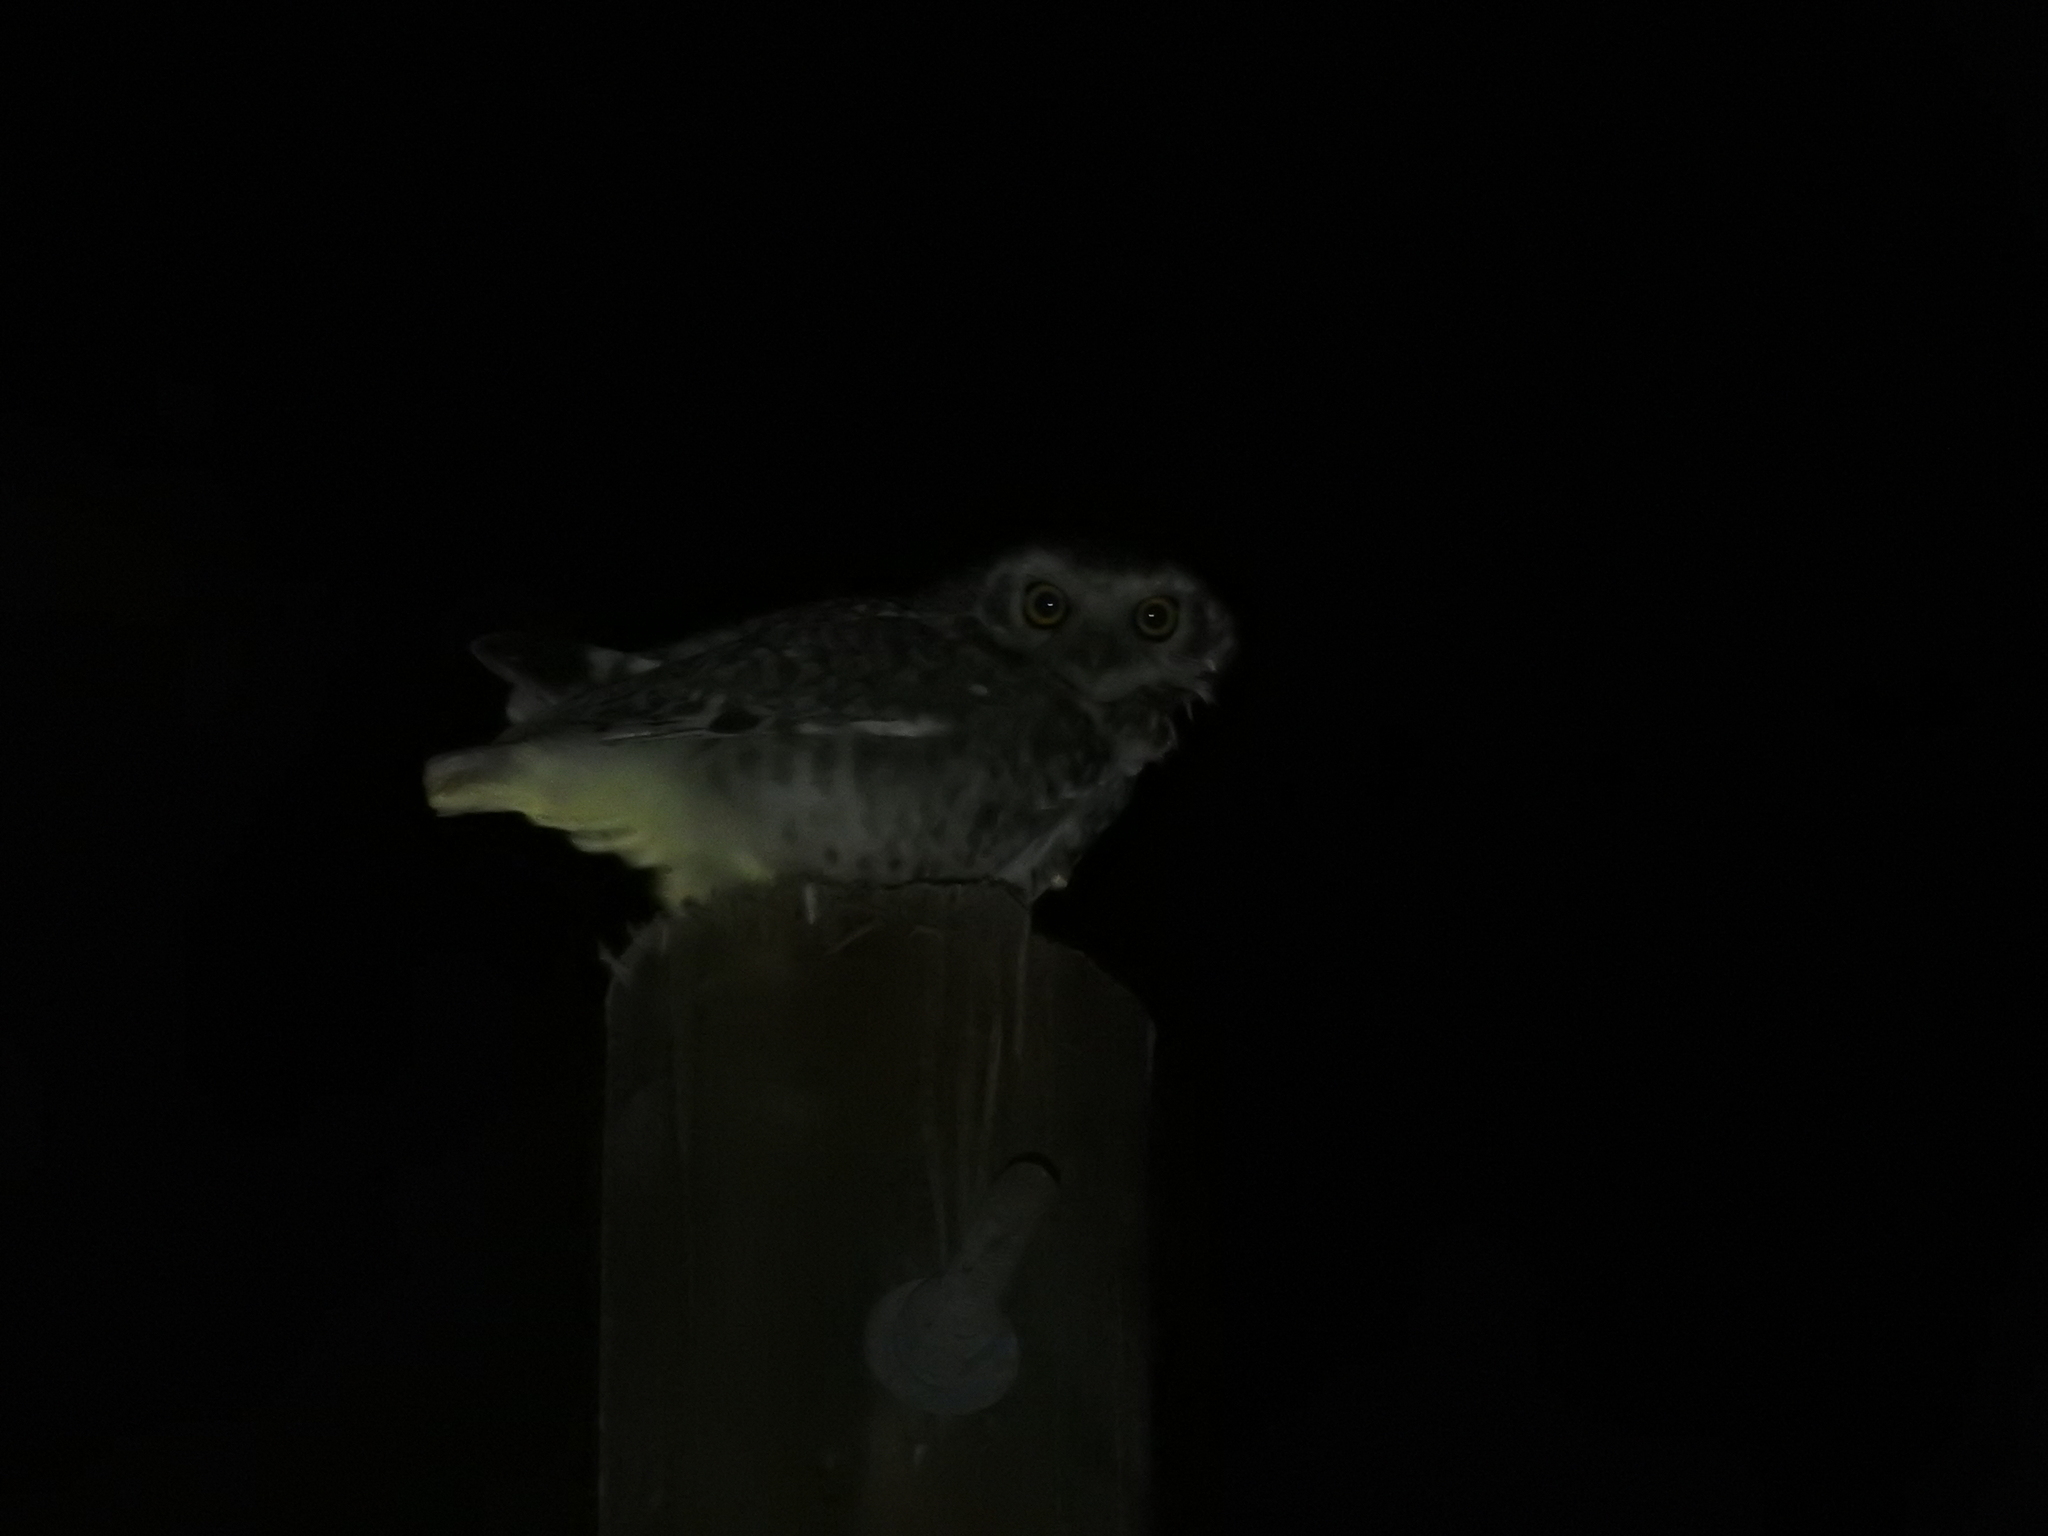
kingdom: Animalia
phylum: Chordata
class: Aves
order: Strigiformes
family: Strigidae
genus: Athene
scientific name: Athene cunicularia
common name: Burrowing owl
